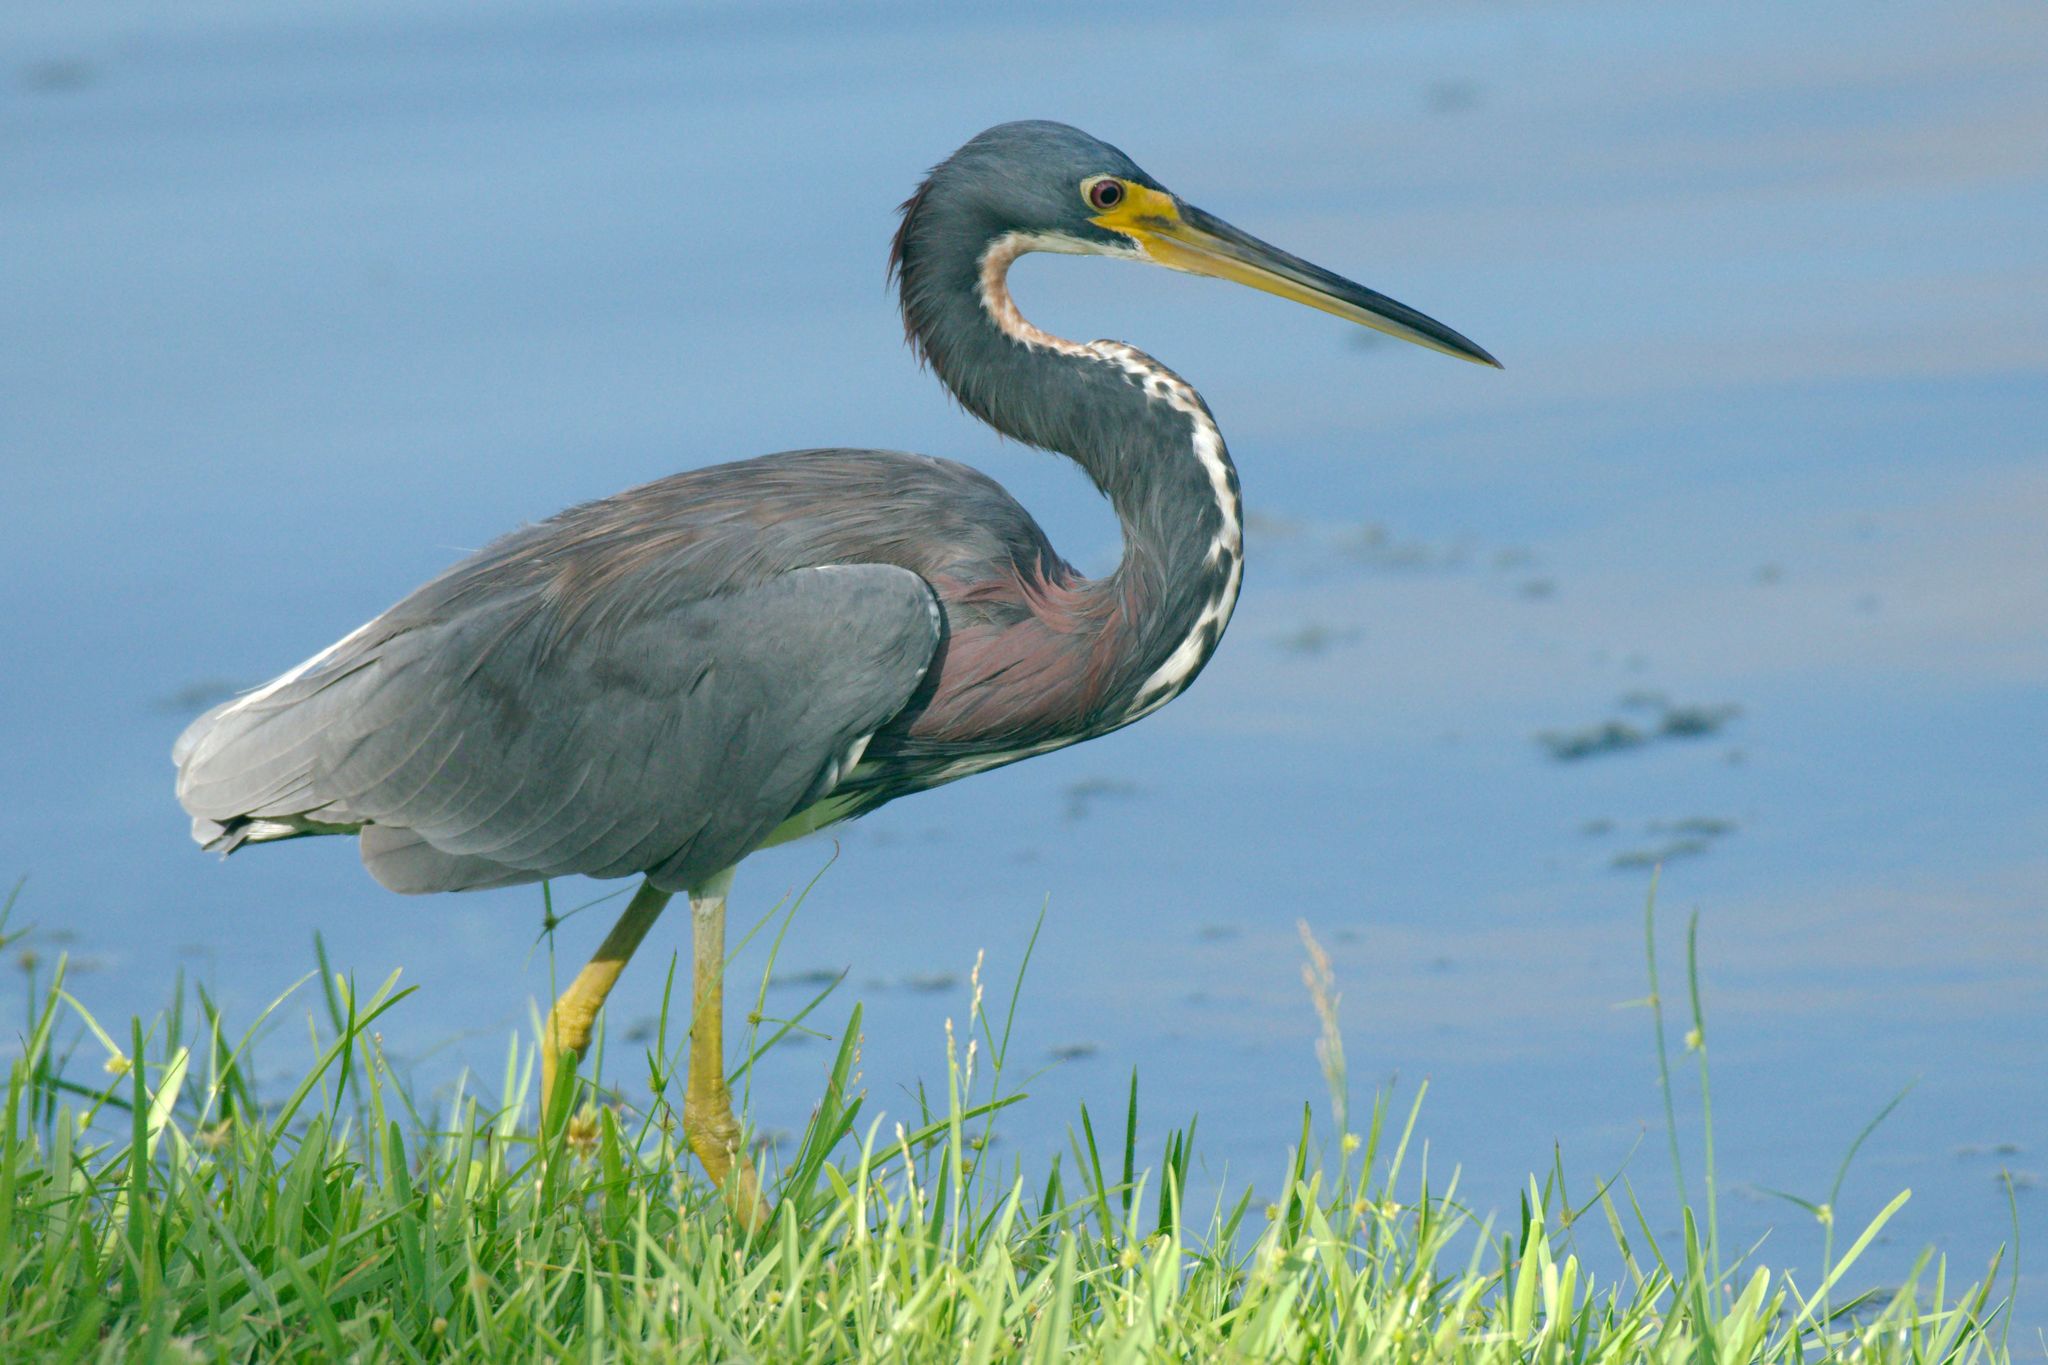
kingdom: Animalia
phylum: Chordata
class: Aves
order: Pelecaniformes
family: Ardeidae
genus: Egretta
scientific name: Egretta tricolor
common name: Tricolored heron
